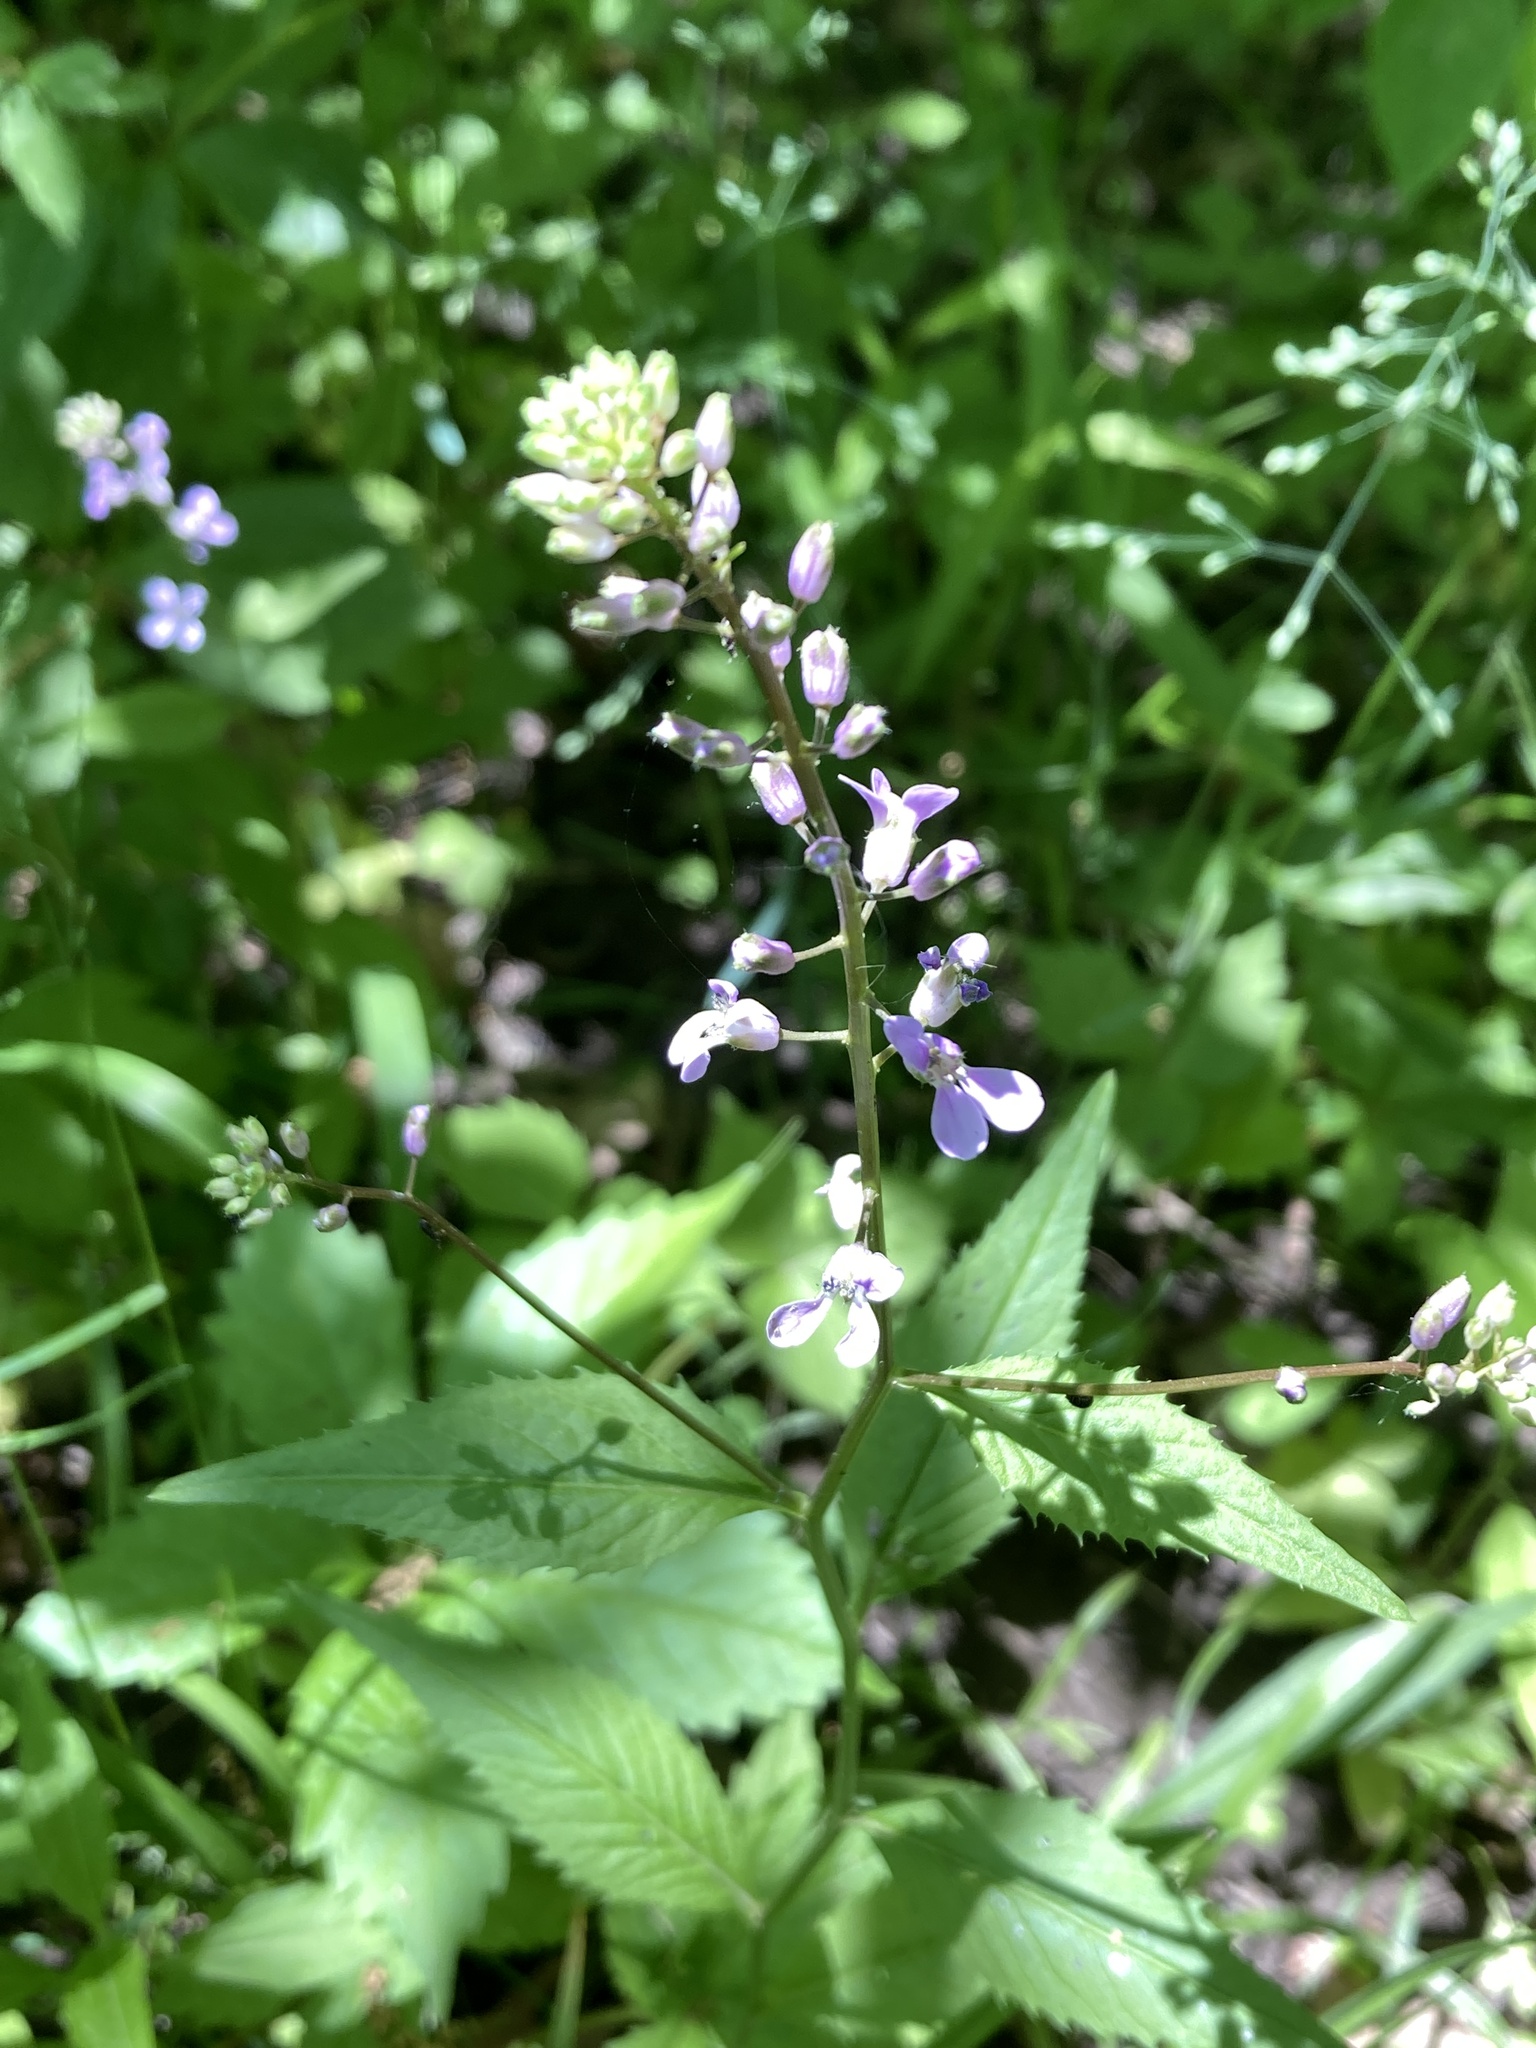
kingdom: Plantae
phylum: Tracheophyta
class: Magnoliopsida
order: Brassicales
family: Brassicaceae
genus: Iodanthus
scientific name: Iodanthus pinnatifidus
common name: Violet rocket
